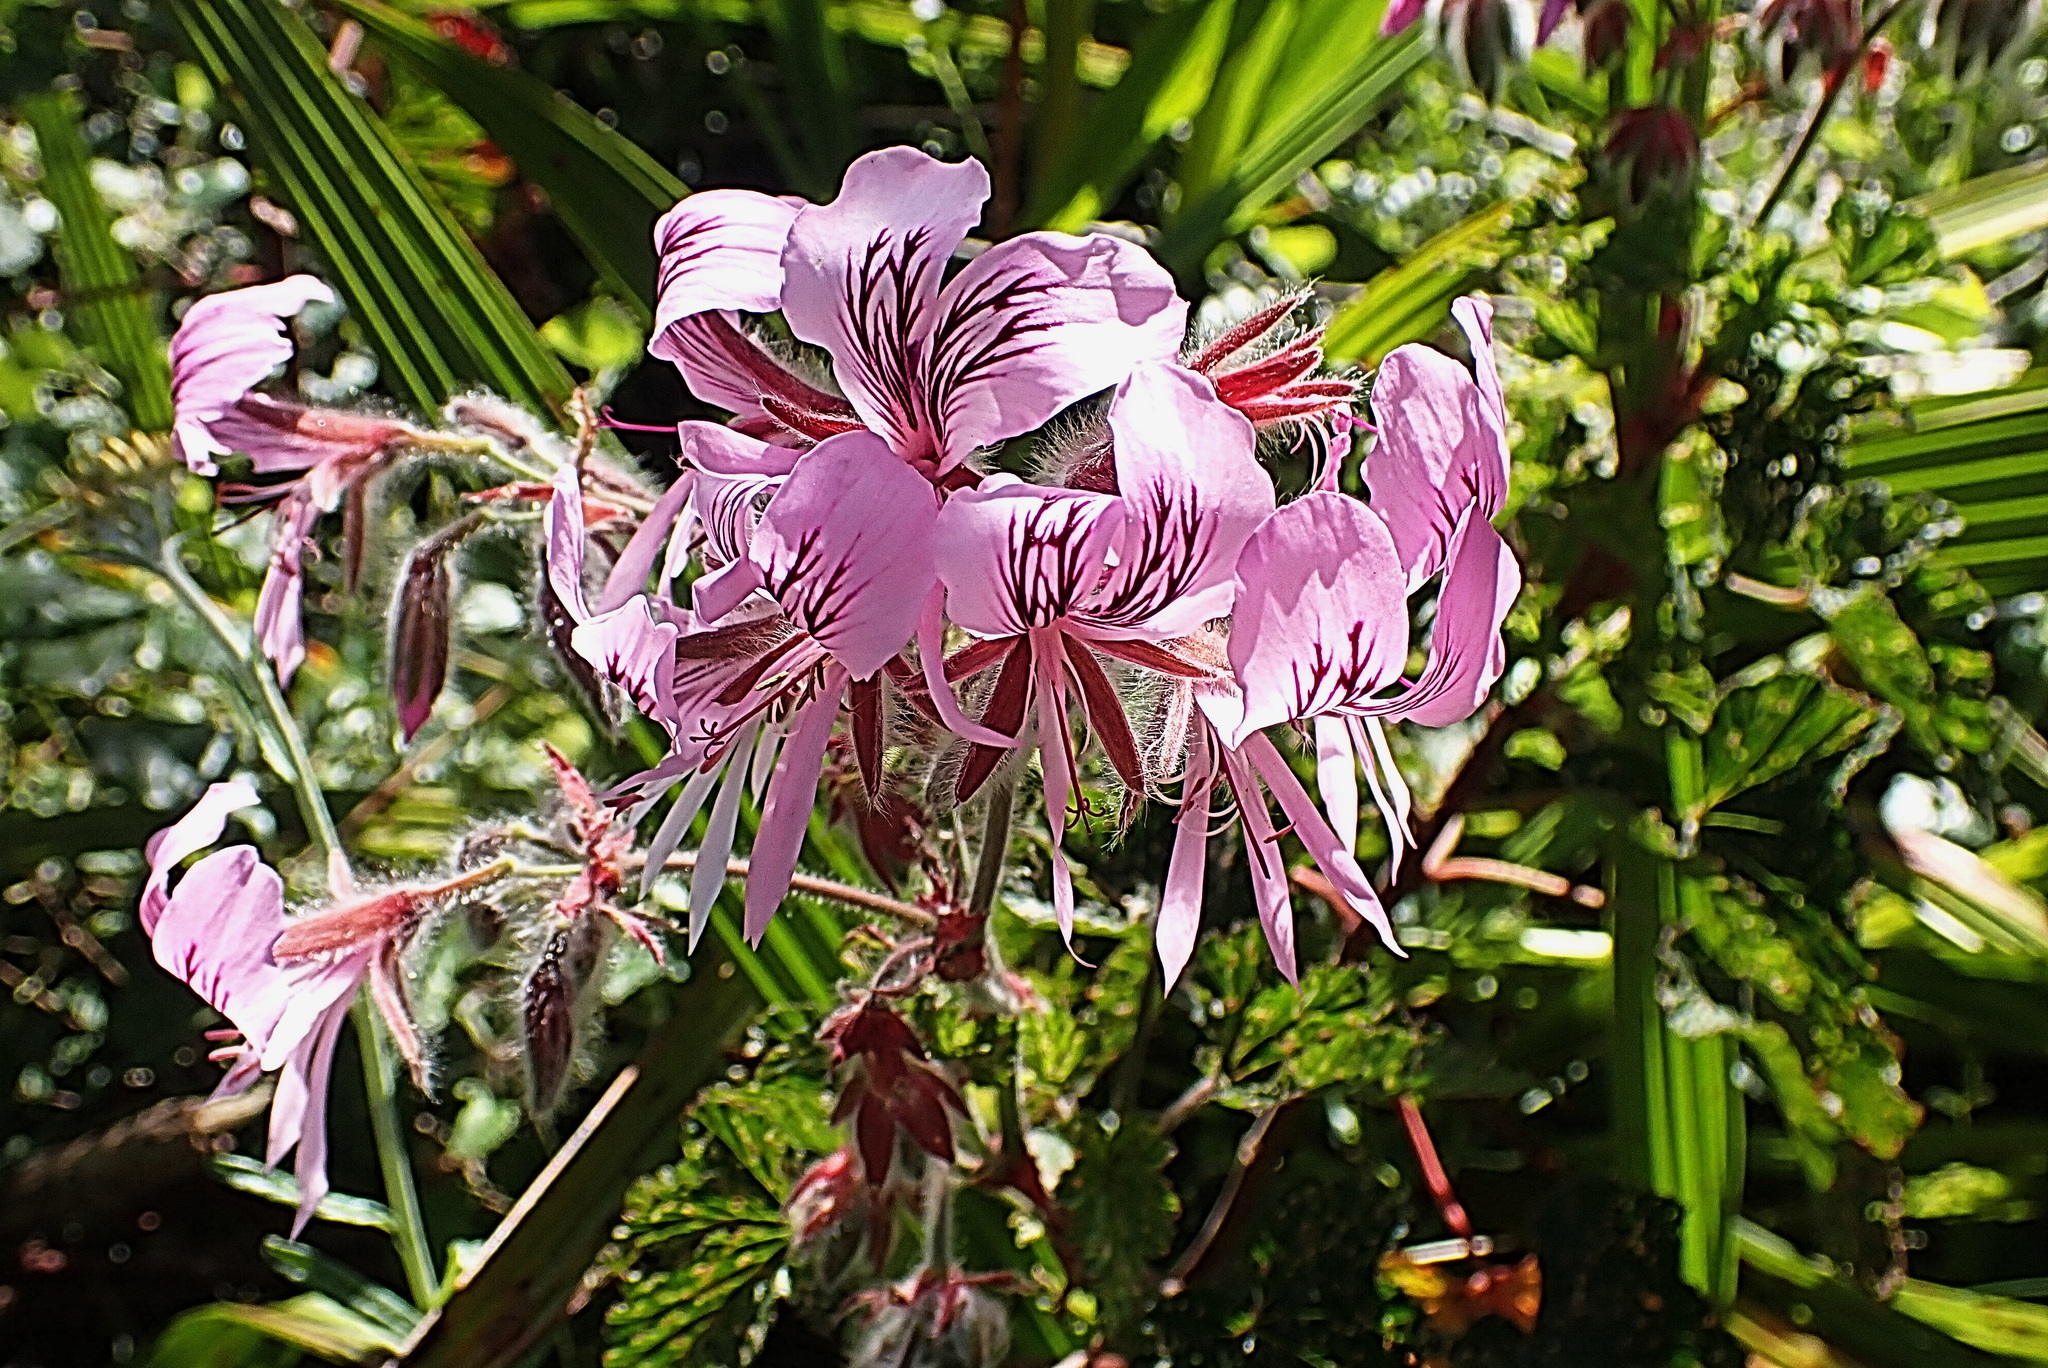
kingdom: Plantae
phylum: Tracheophyta
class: Magnoliopsida
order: Geraniales
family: Geraniaceae
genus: Pelargonium
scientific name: Pelargonium cordifolium
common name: Heart-leaf pelargonium
